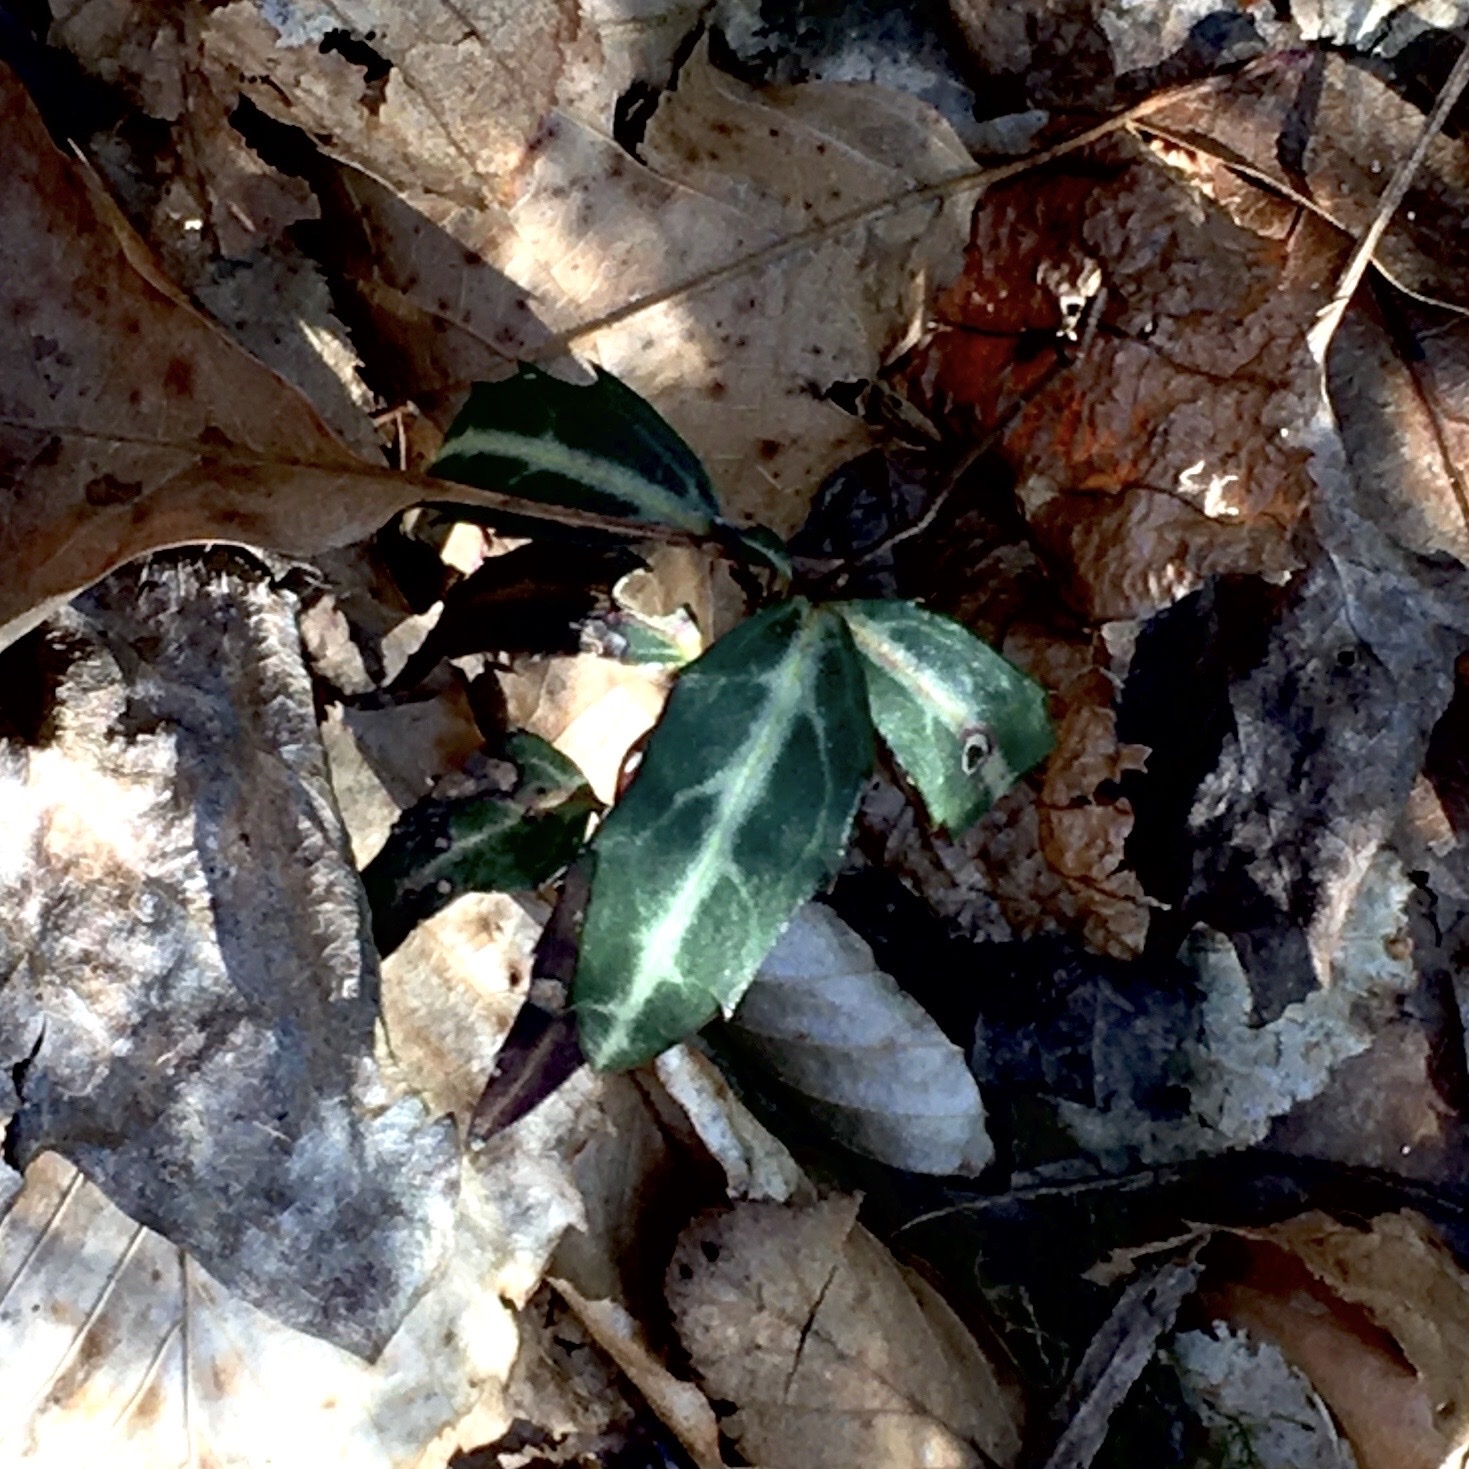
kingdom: Plantae
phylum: Tracheophyta
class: Magnoliopsida
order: Ericales
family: Ericaceae
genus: Chimaphila
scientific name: Chimaphila maculata
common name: Spotted pipsissewa
